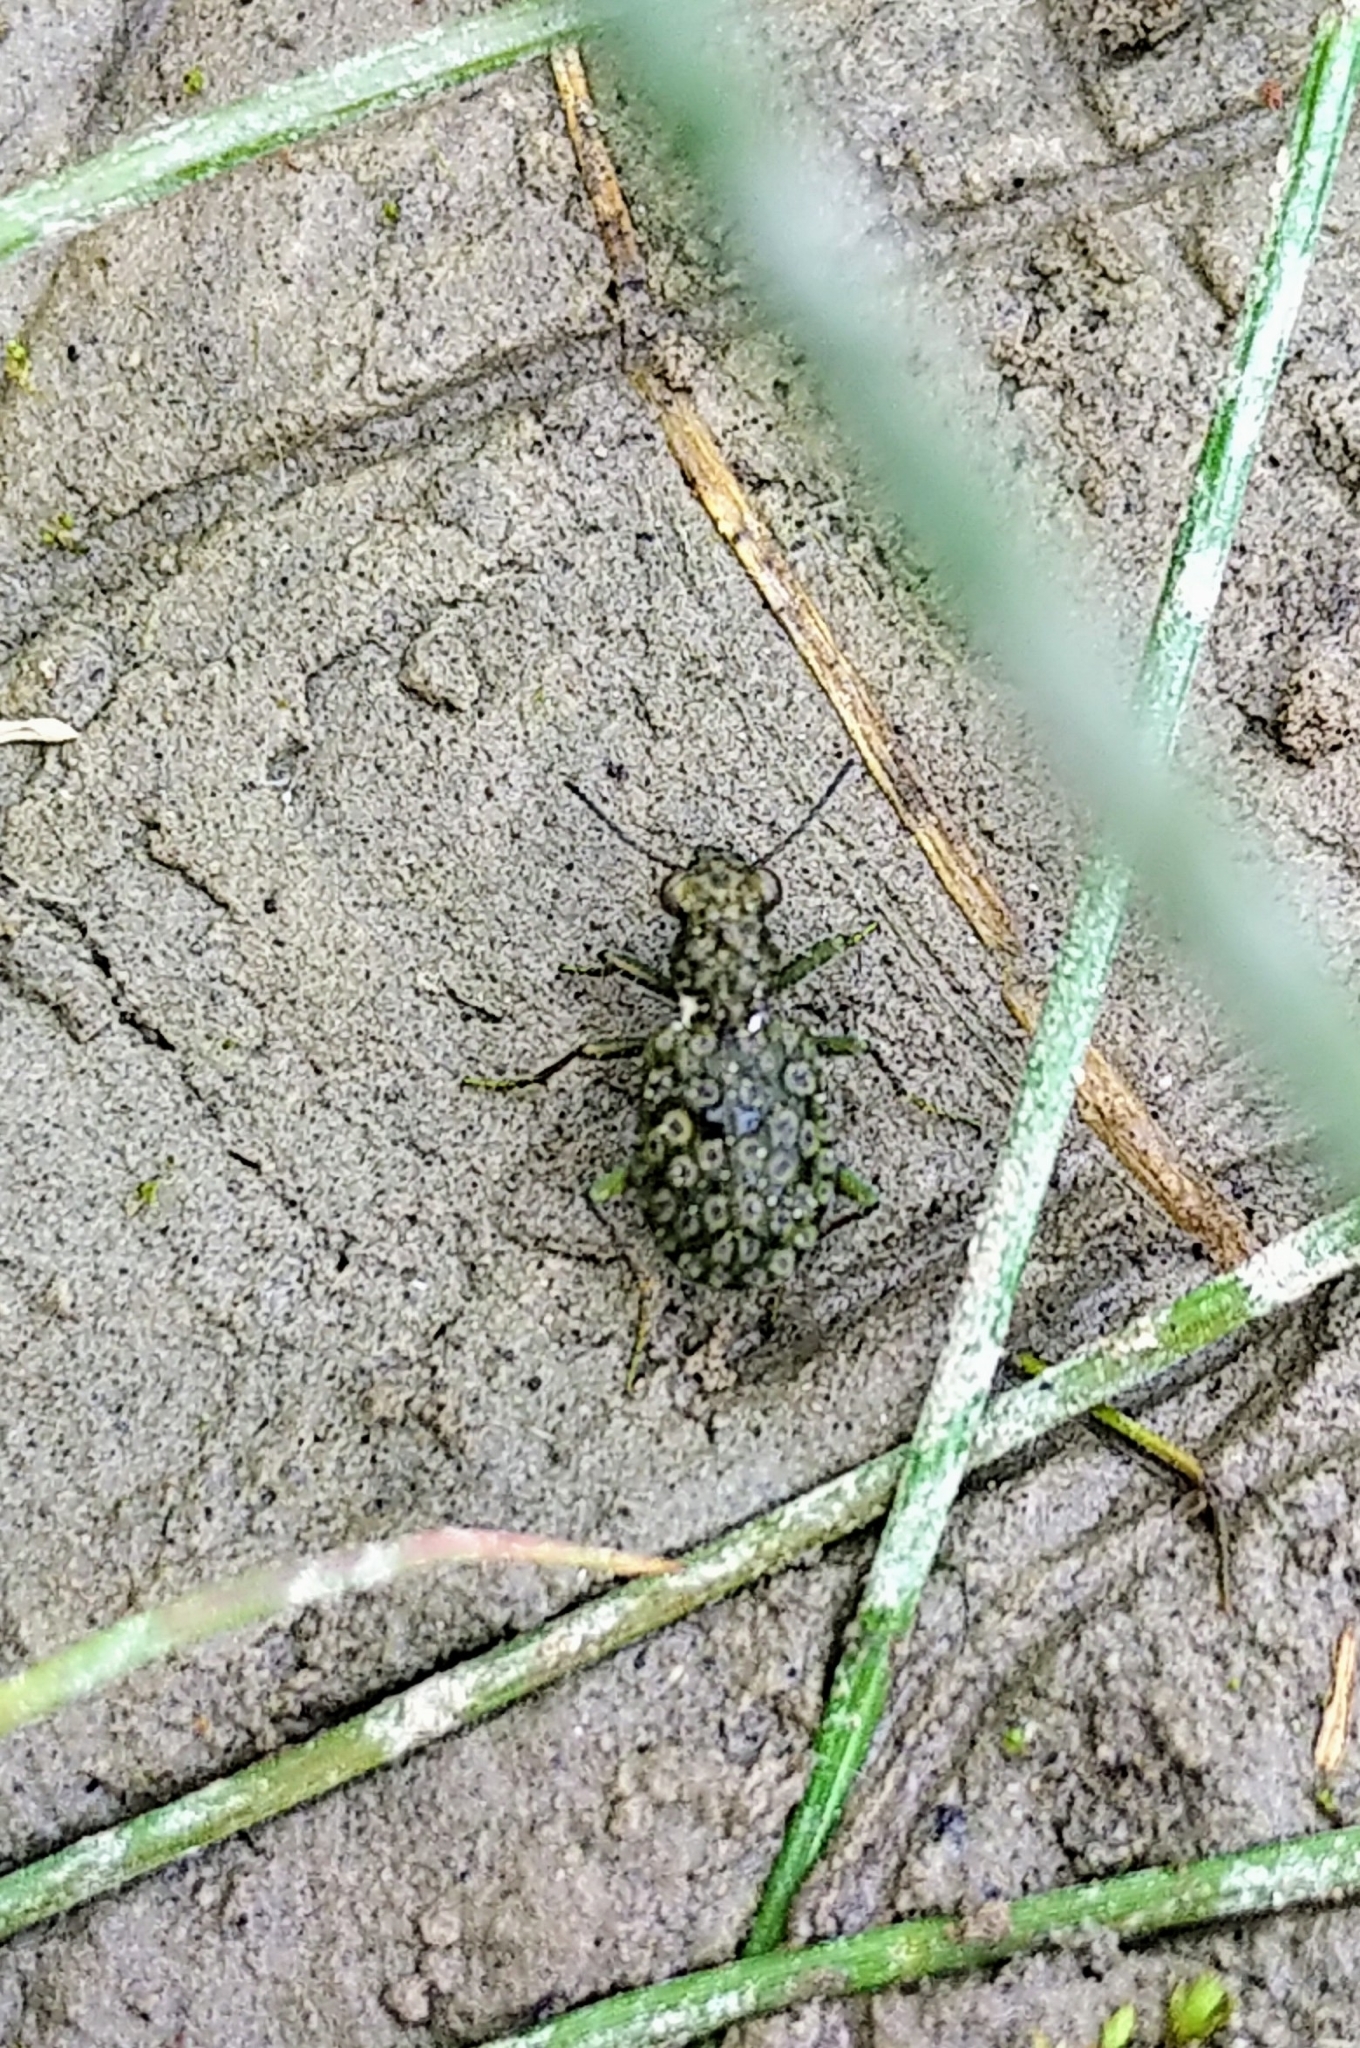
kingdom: Animalia
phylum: Arthropoda
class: Insecta
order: Coleoptera
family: Carabidae
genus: Elaphrus
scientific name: Elaphrus americanus
